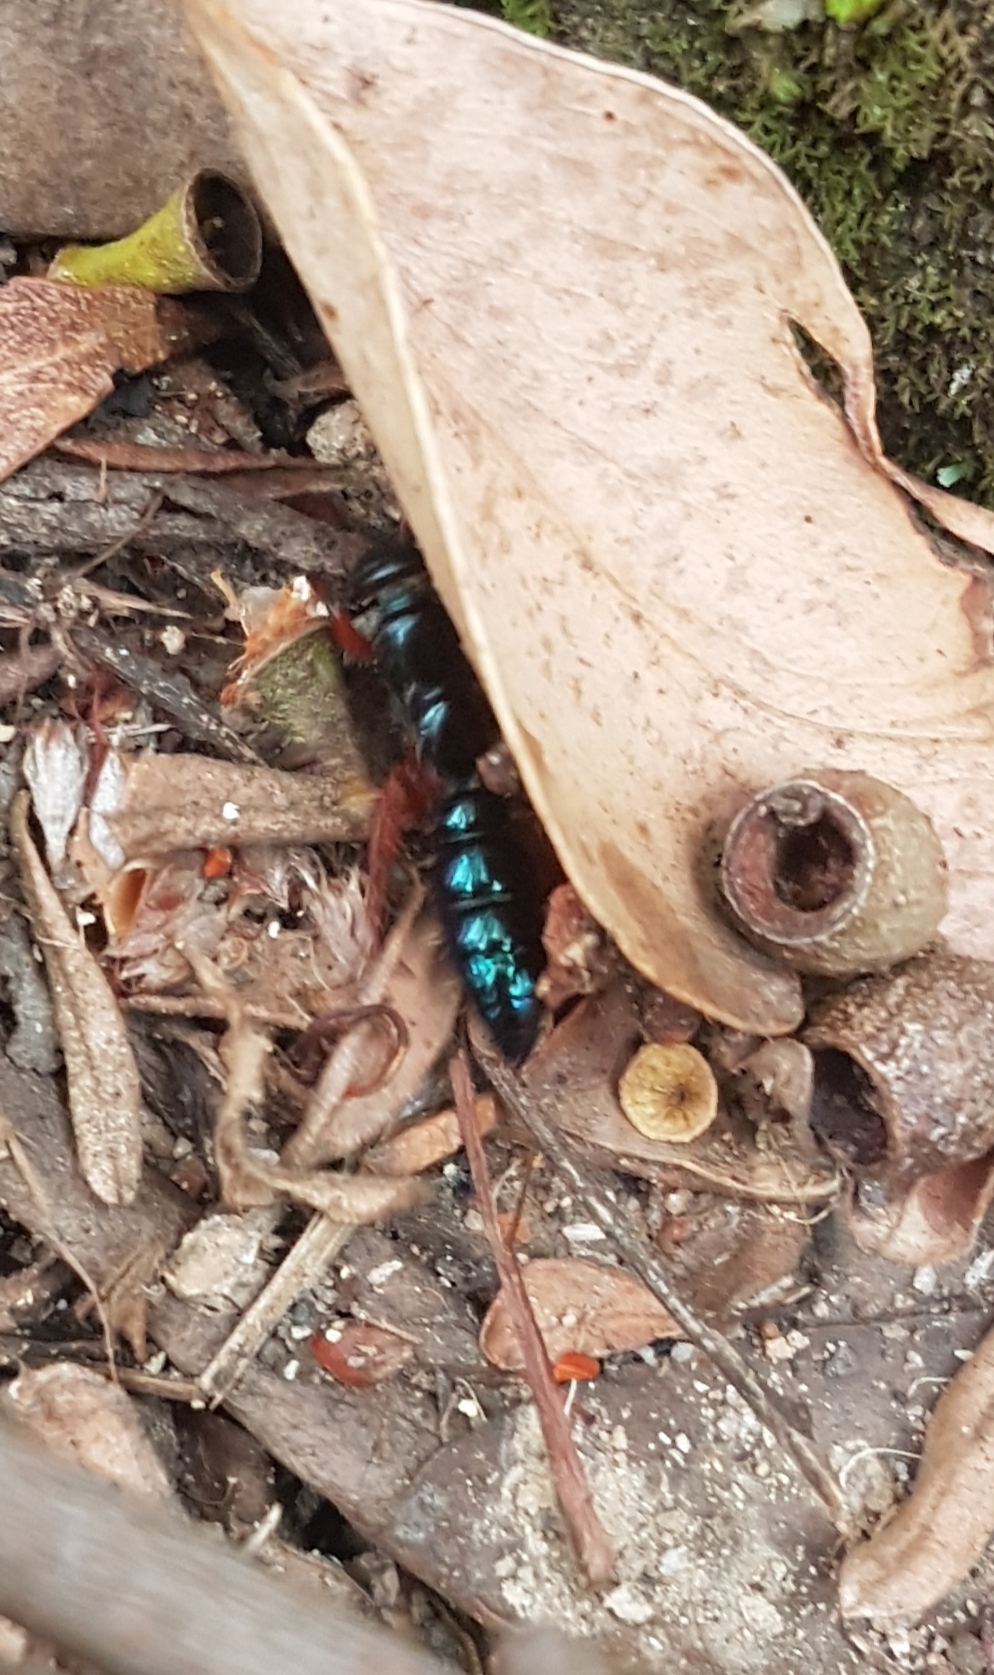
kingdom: Animalia
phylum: Arthropoda
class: Insecta
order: Hymenoptera
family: Tiphiidae
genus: Diamma
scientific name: Diamma
